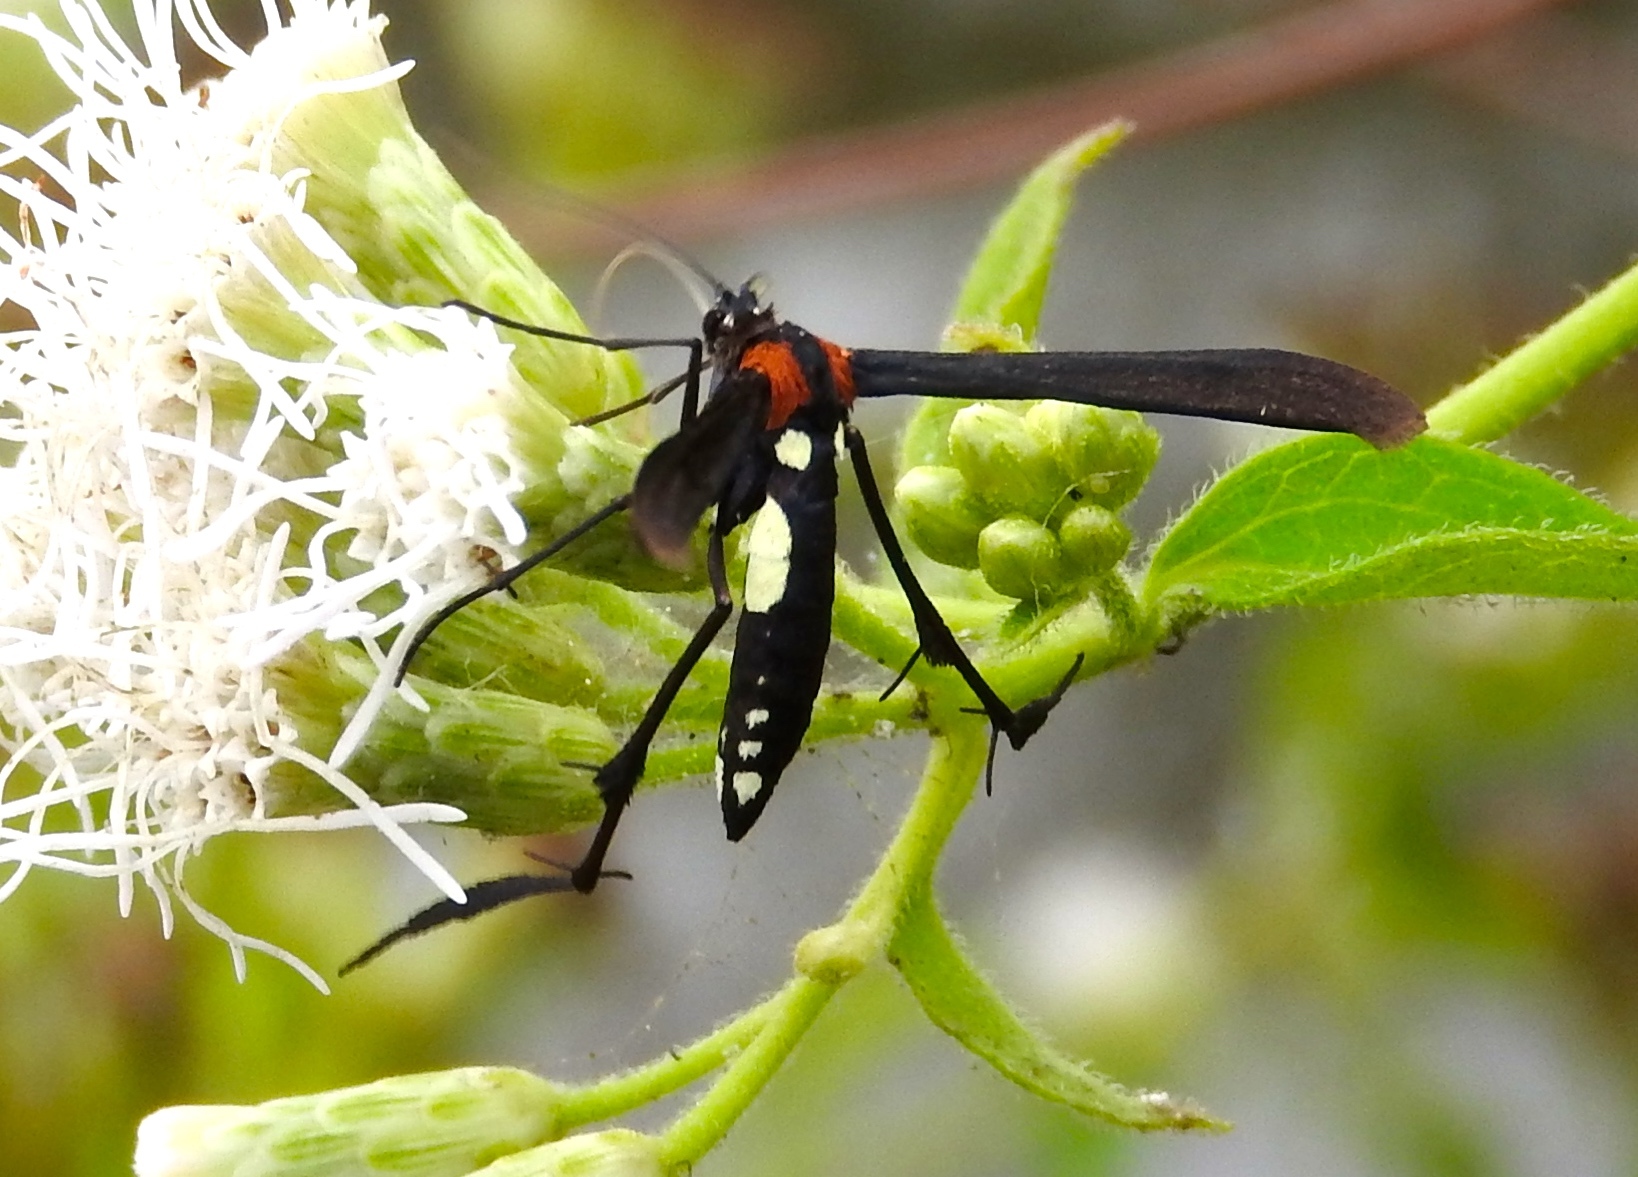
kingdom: Animalia
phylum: Arthropoda
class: Insecta
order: Lepidoptera
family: Pterophoridae
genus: Hellinsia
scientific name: Hellinsia chamelai
